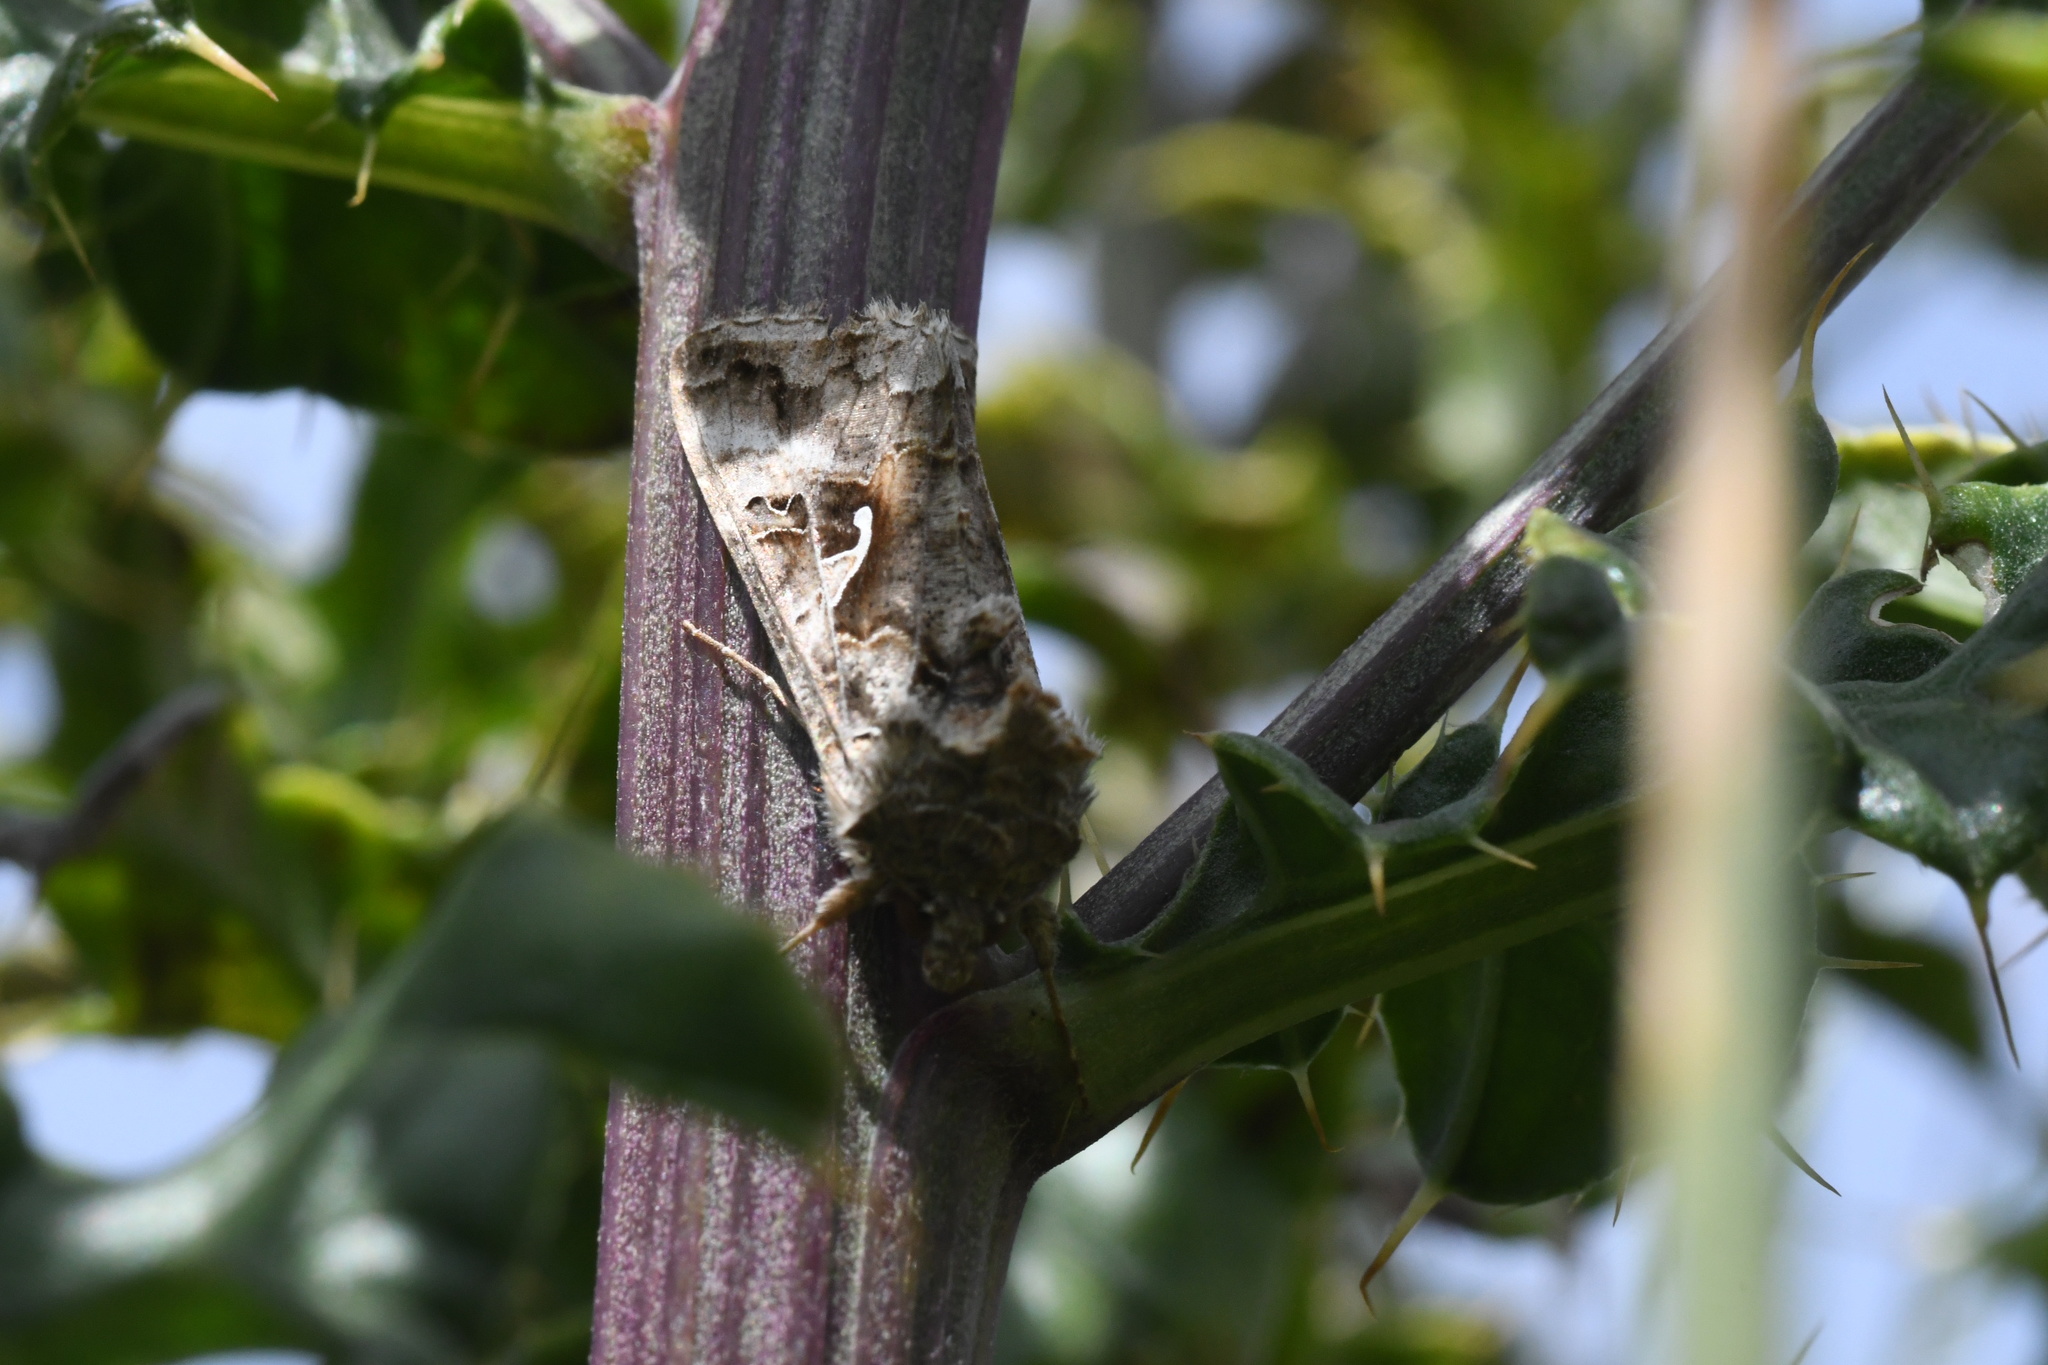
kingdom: Animalia
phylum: Arthropoda
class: Insecta
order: Lepidoptera
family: Noctuidae
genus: Autographa
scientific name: Autographa gamma
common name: Silver y
